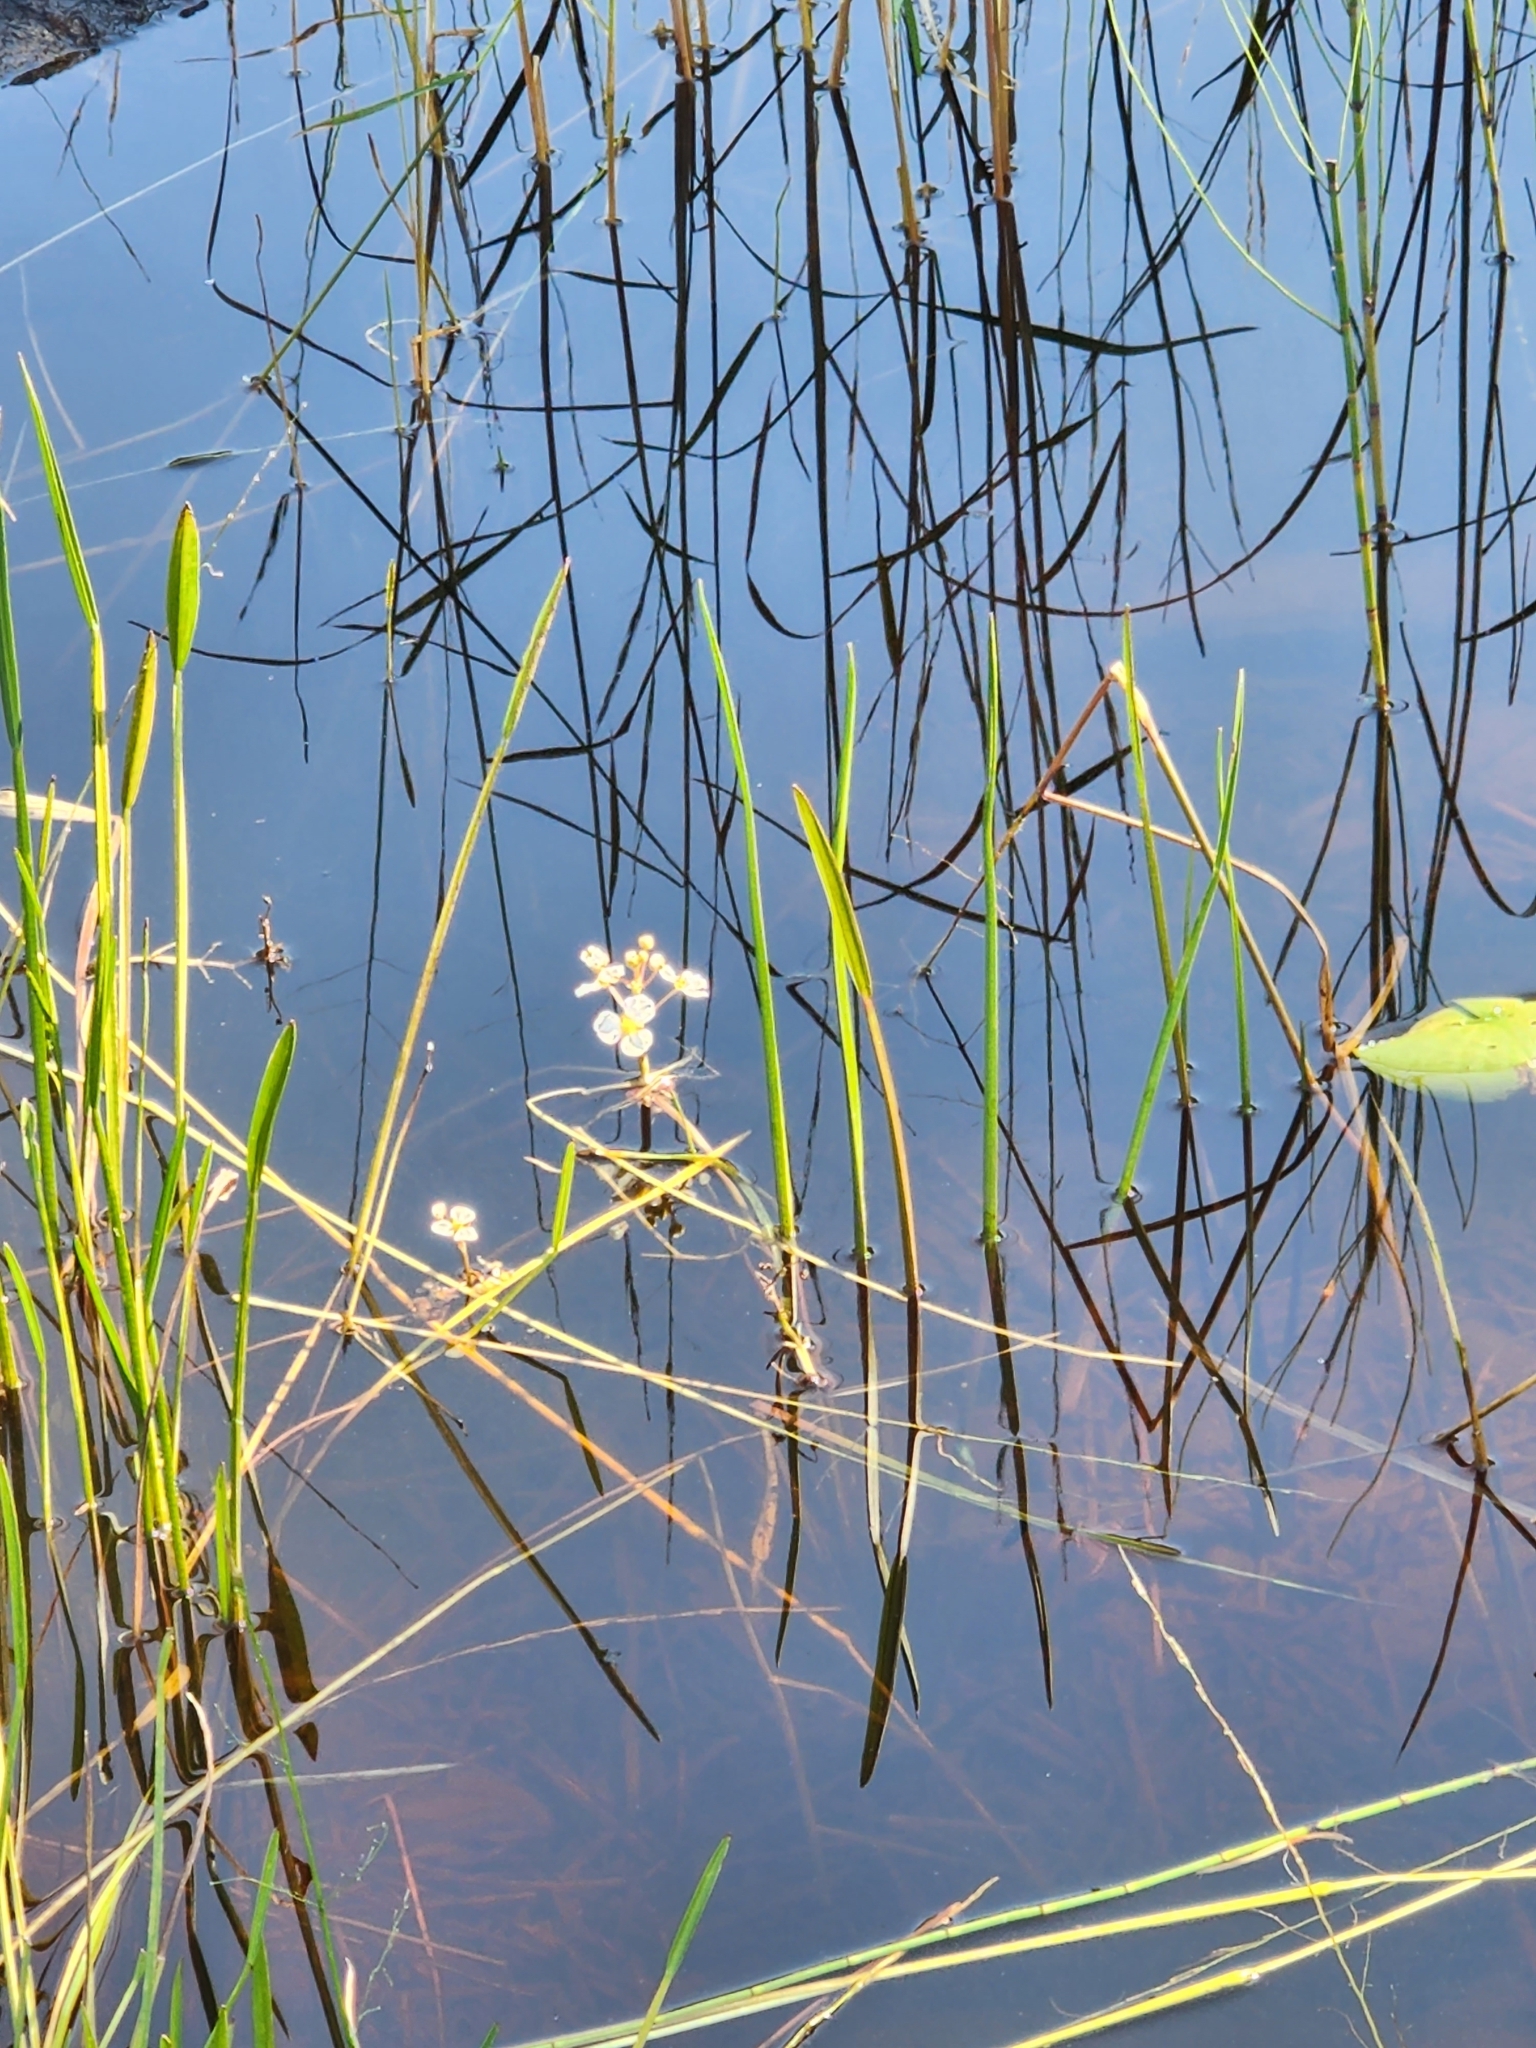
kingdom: Plantae
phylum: Tracheophyta
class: Liliopsida
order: Alismatales
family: Alismataceae
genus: Sagittaria
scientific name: Sagittaria cristata
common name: Crested arrowhead
